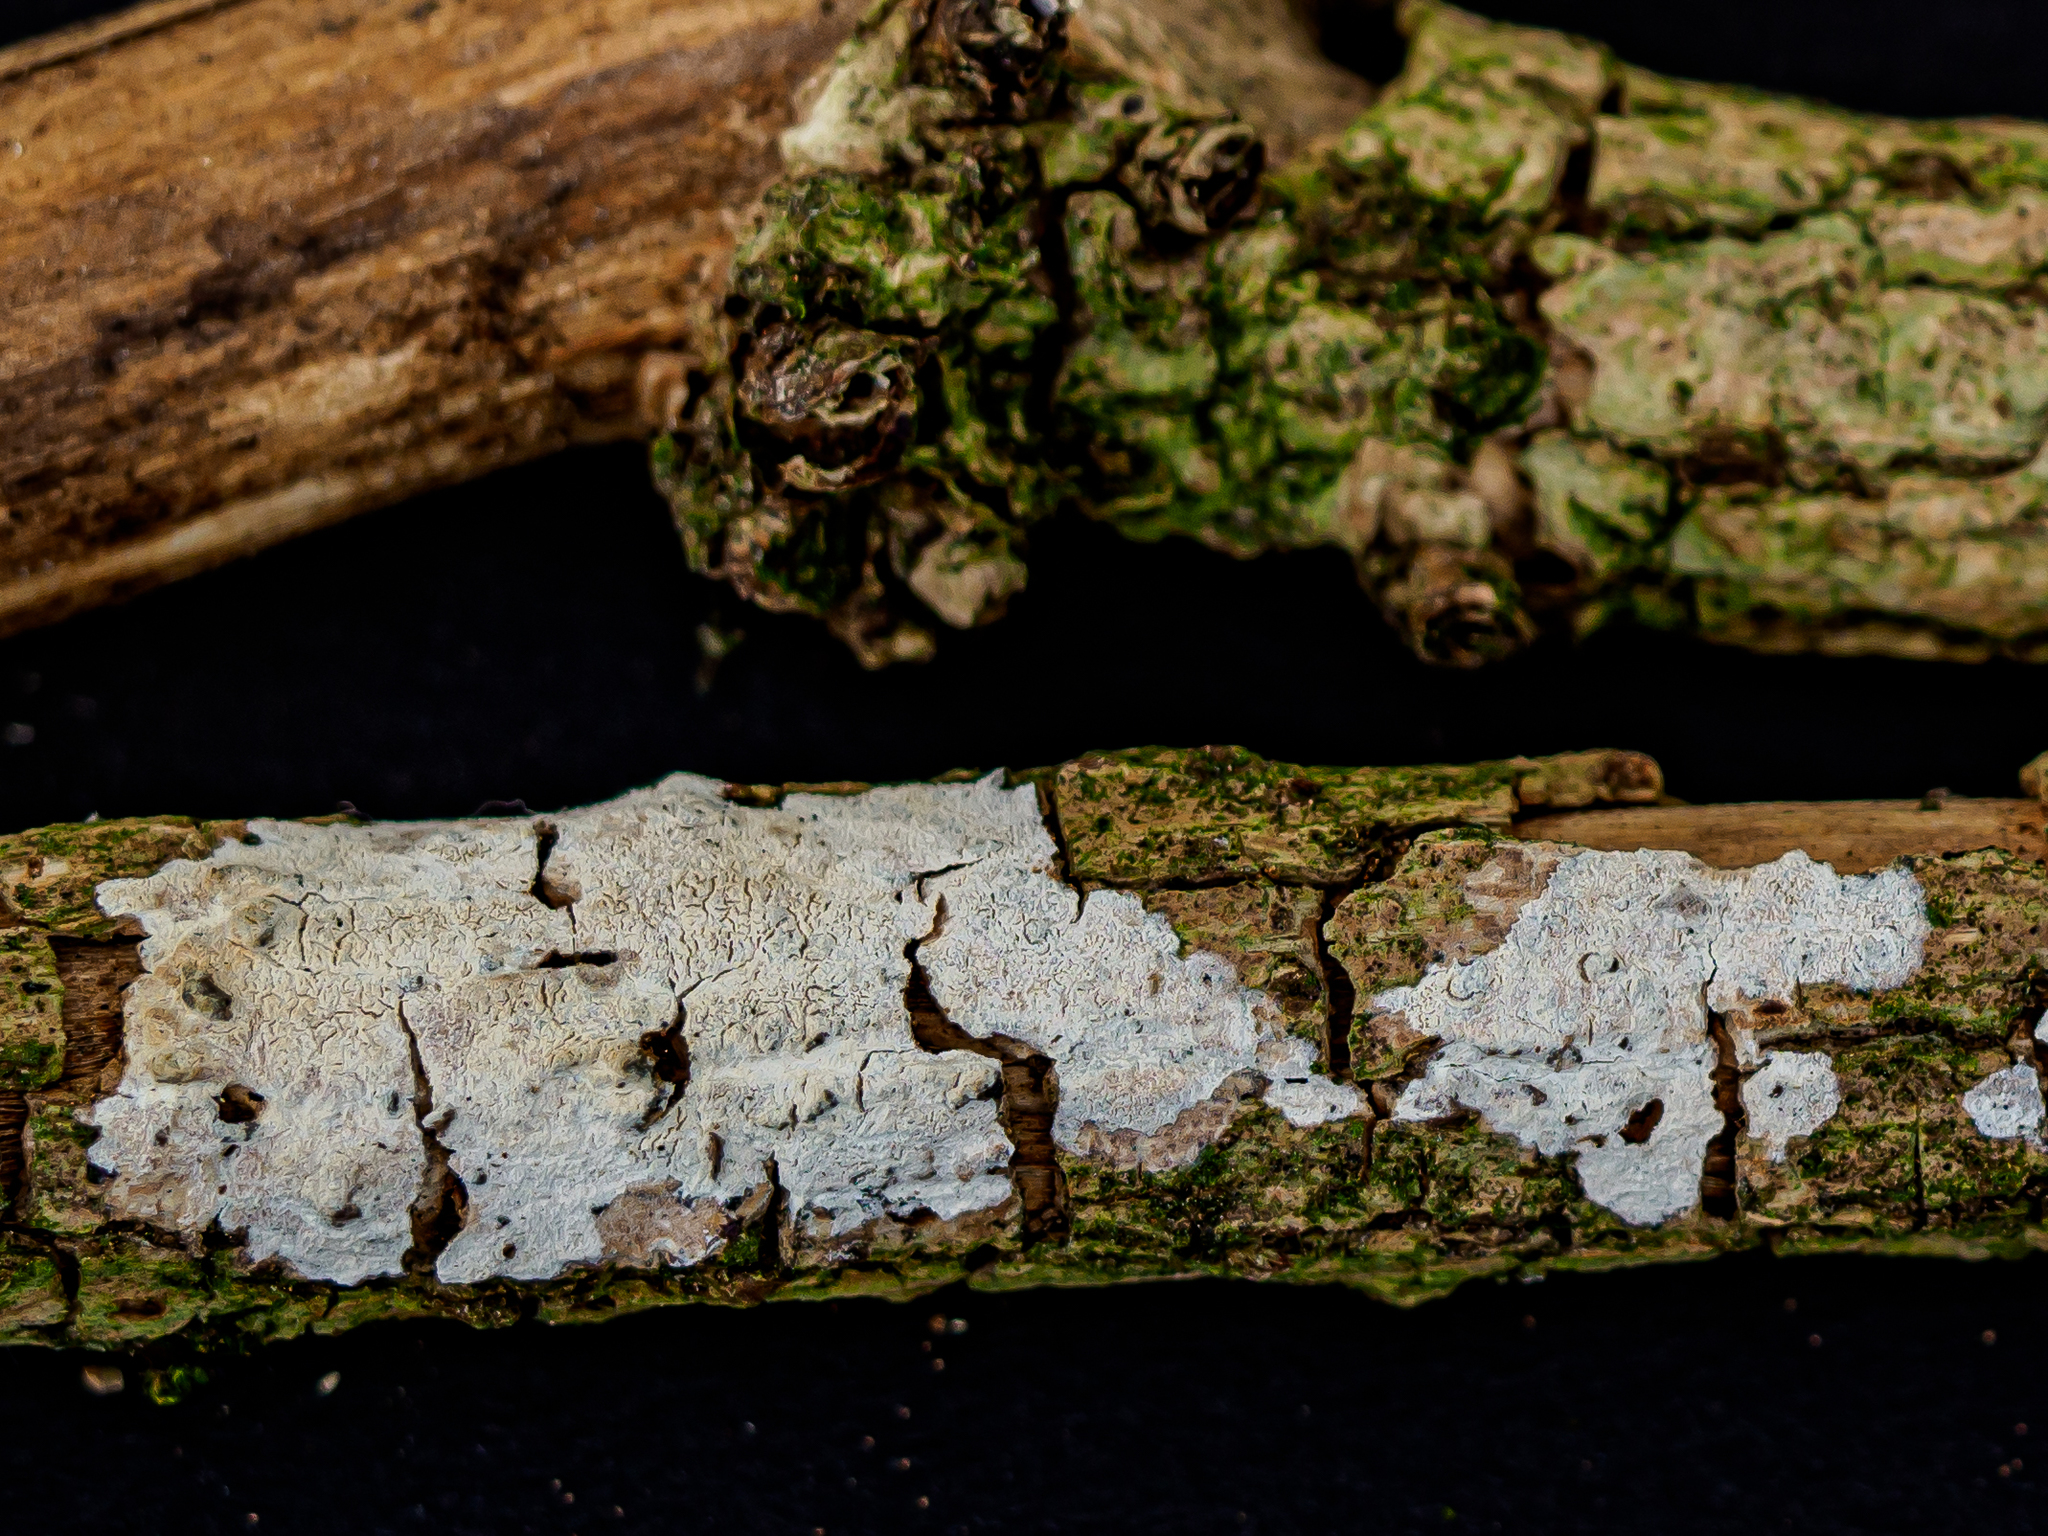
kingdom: Fungi
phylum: Basidiomycota
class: Agaricomycetes
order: Corticiales
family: Corticiaceae
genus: Lyomyces
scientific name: Lyomyces sambuci
